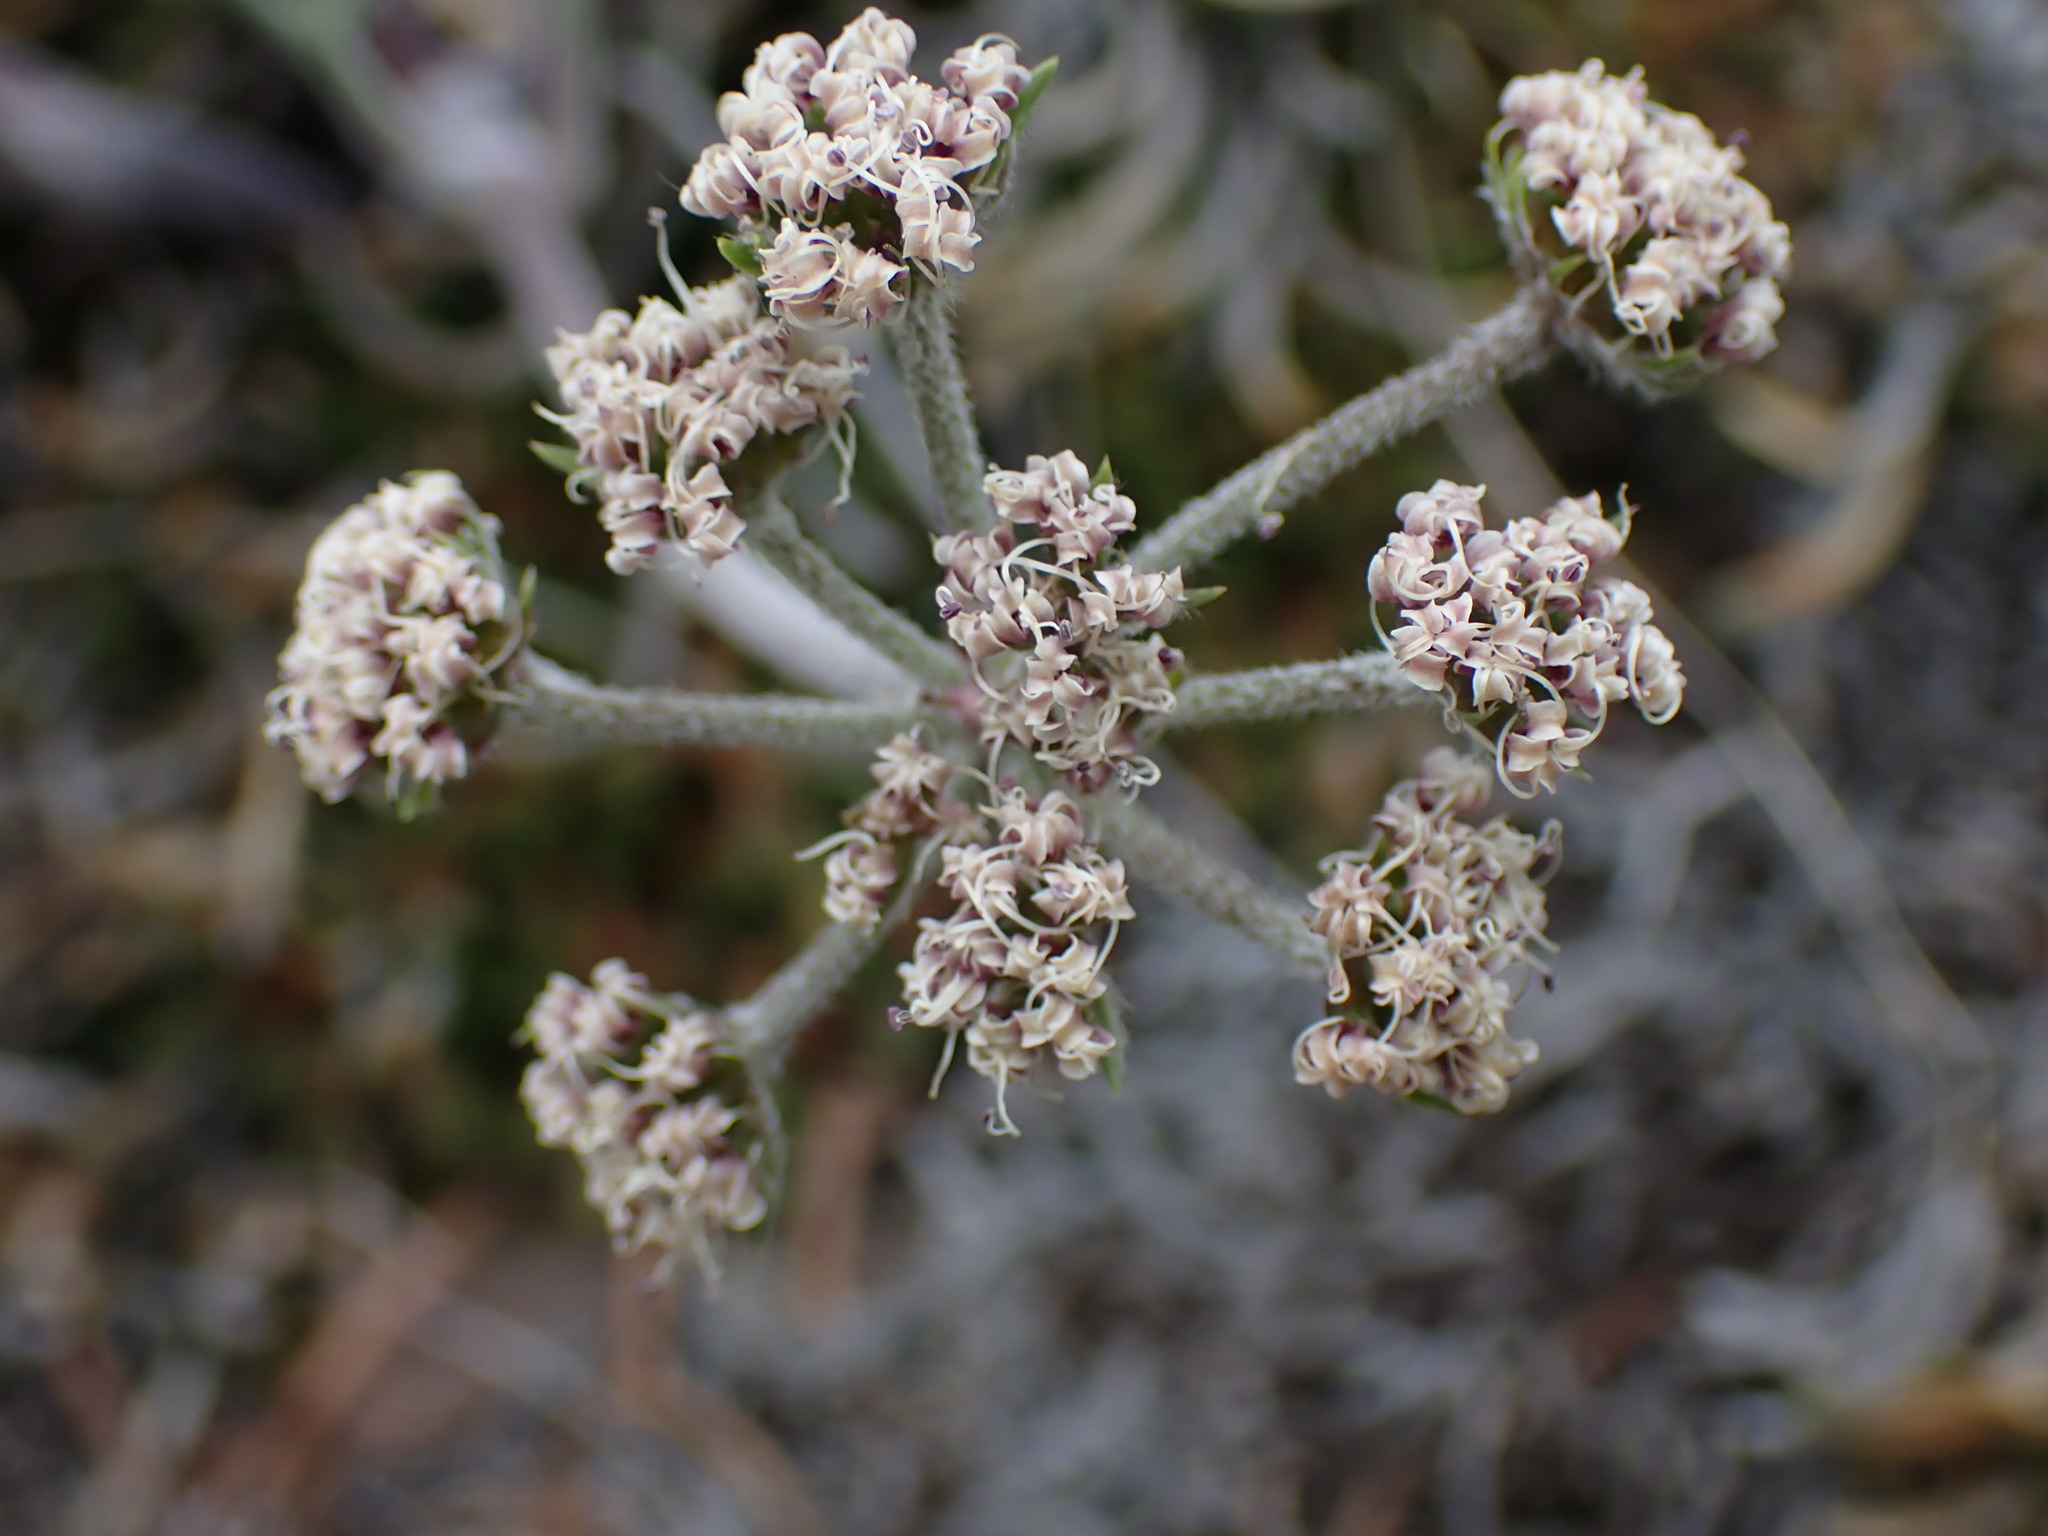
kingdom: Plantae
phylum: Tracheophyta
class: Magnoliopsida
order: Apiales
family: Apiaceae
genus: Lomatium
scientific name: Lomatium macrocarpum
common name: Big-seed biscuitroot
